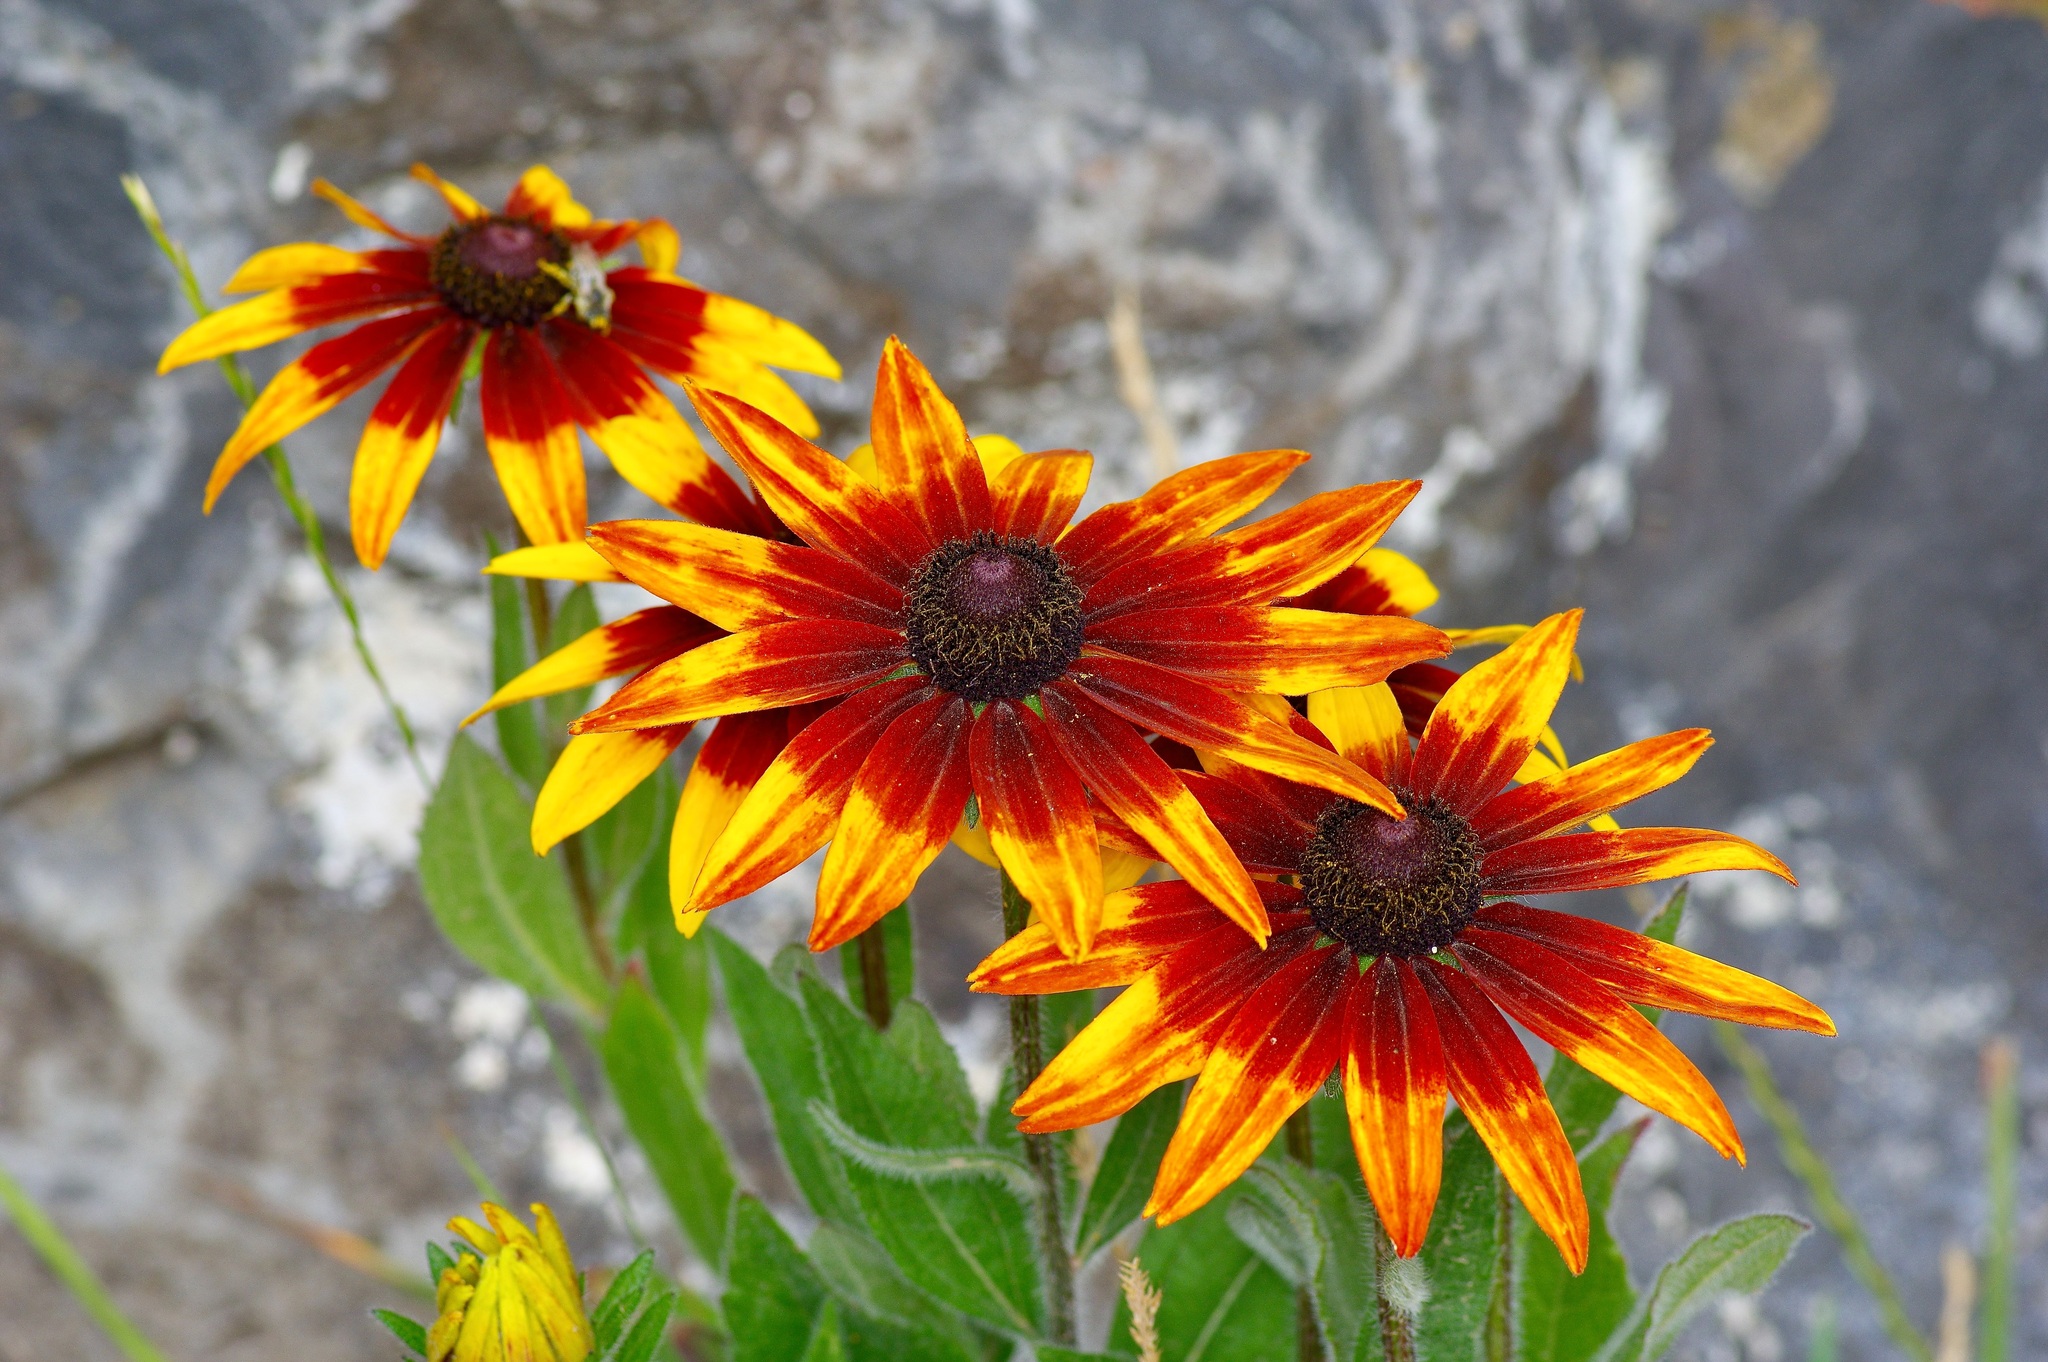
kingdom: Plantae
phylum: Tracheophyta
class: Magnoliopsida
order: Asterales
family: Asteraceae
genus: Rudbeckia
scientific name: Rudbeckia hirta
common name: Black-eyed-susan
